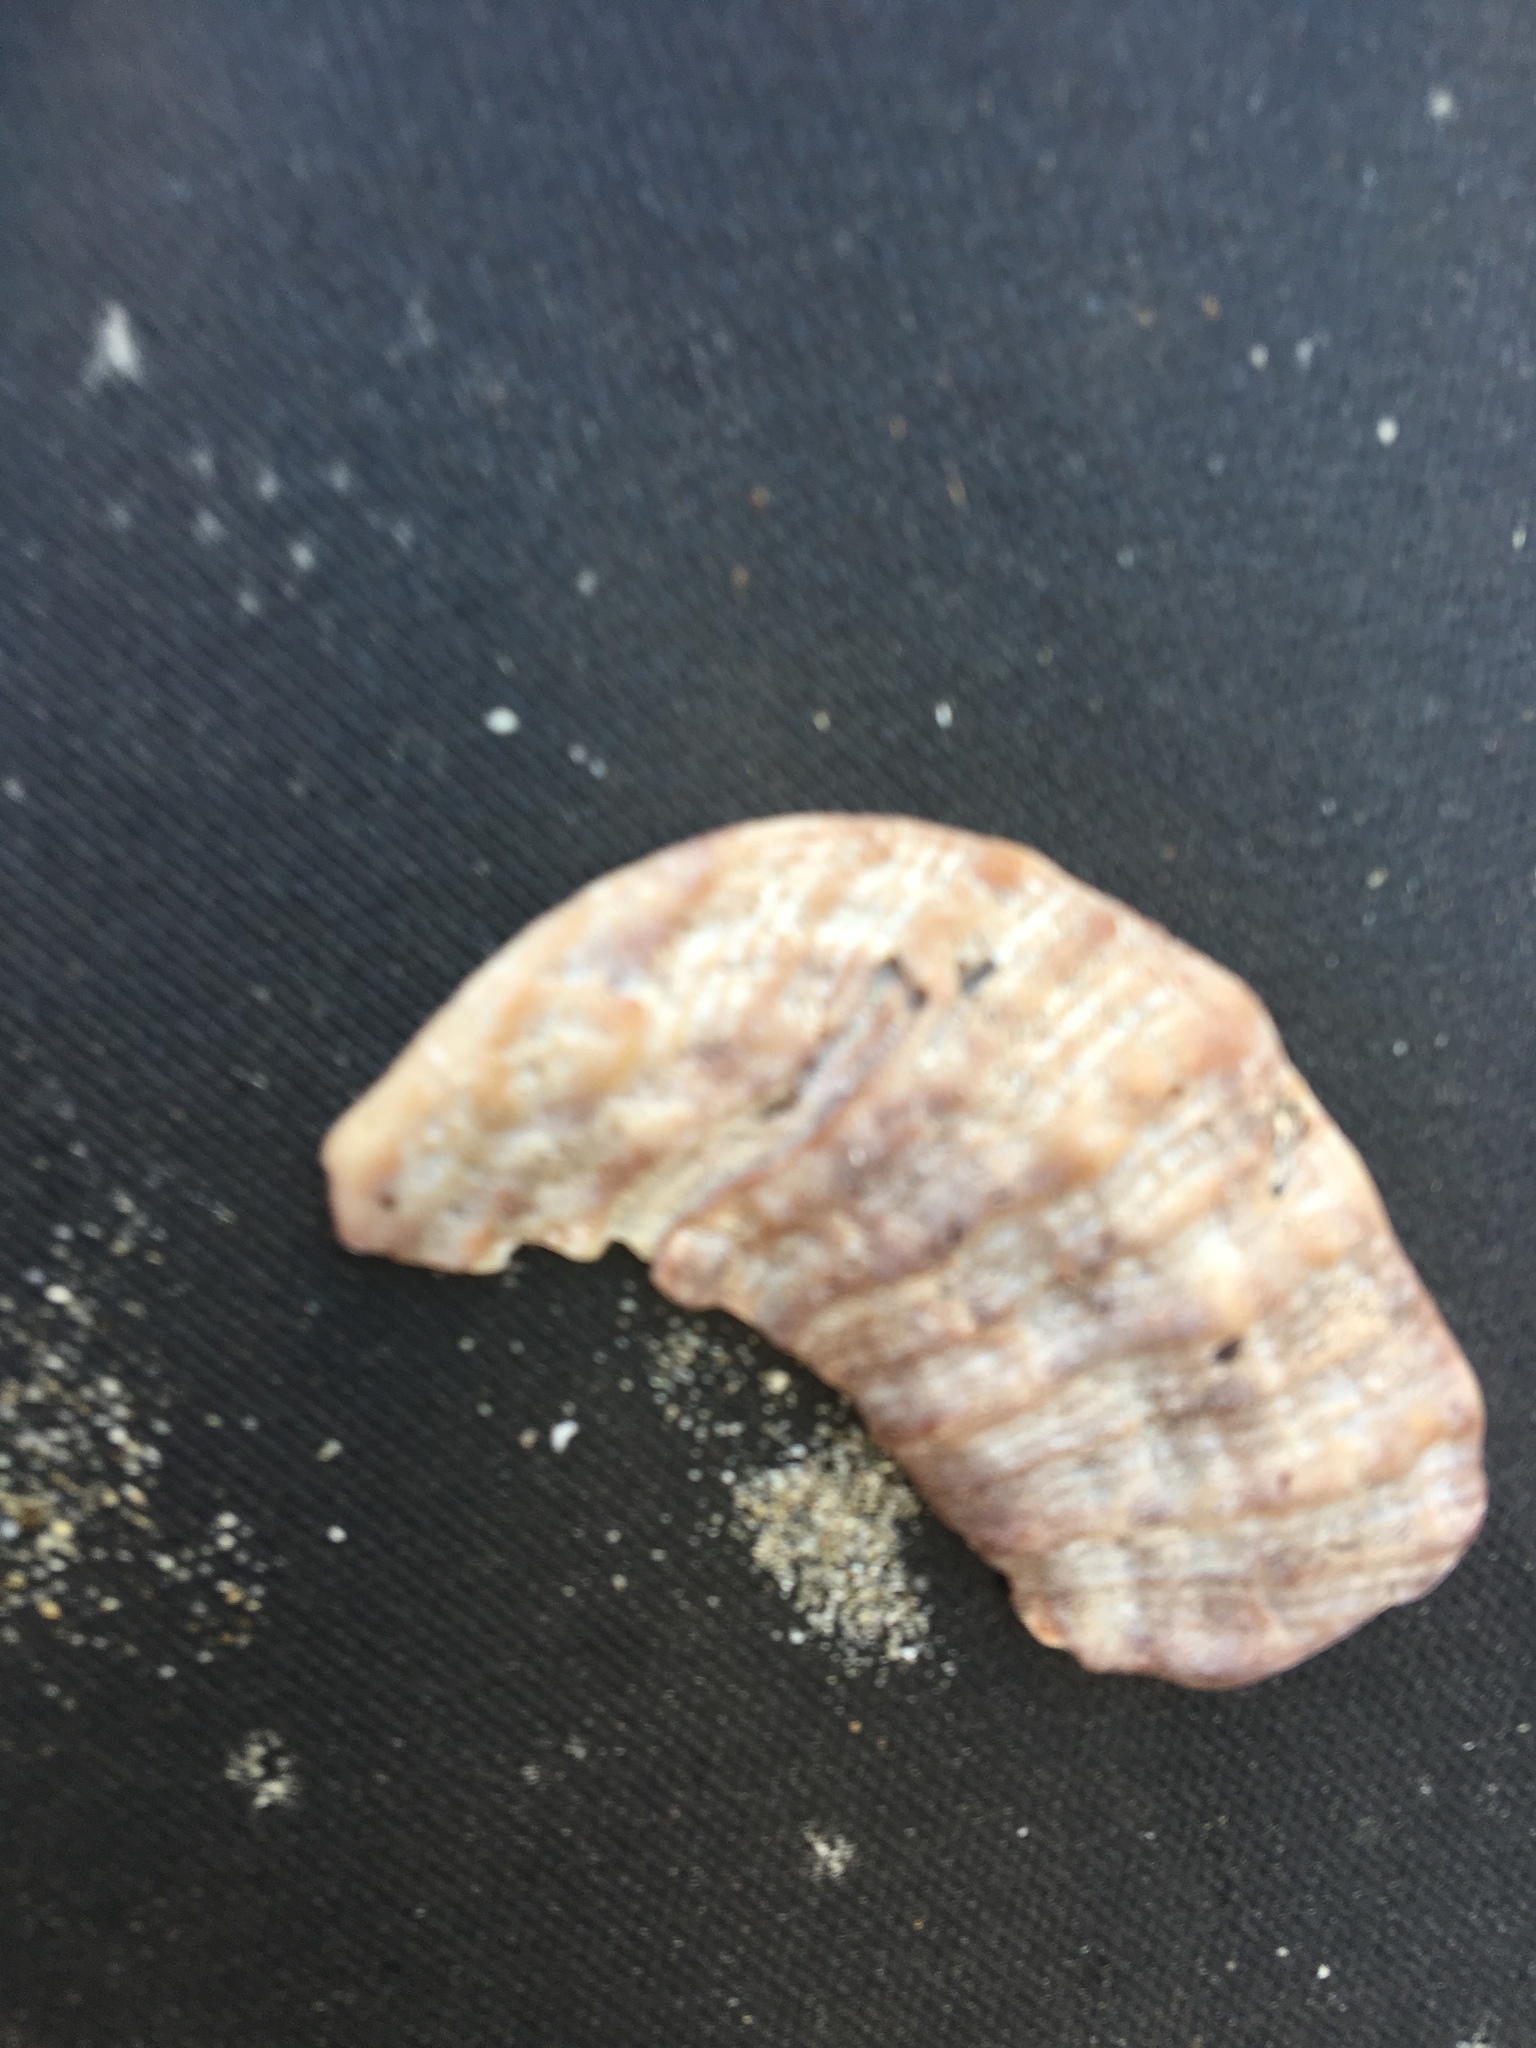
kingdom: Animalia
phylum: Mollusca
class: Bivalvia
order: Pectinida
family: Pectinidae
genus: Crassadoma
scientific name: Crassadoma gigantea
